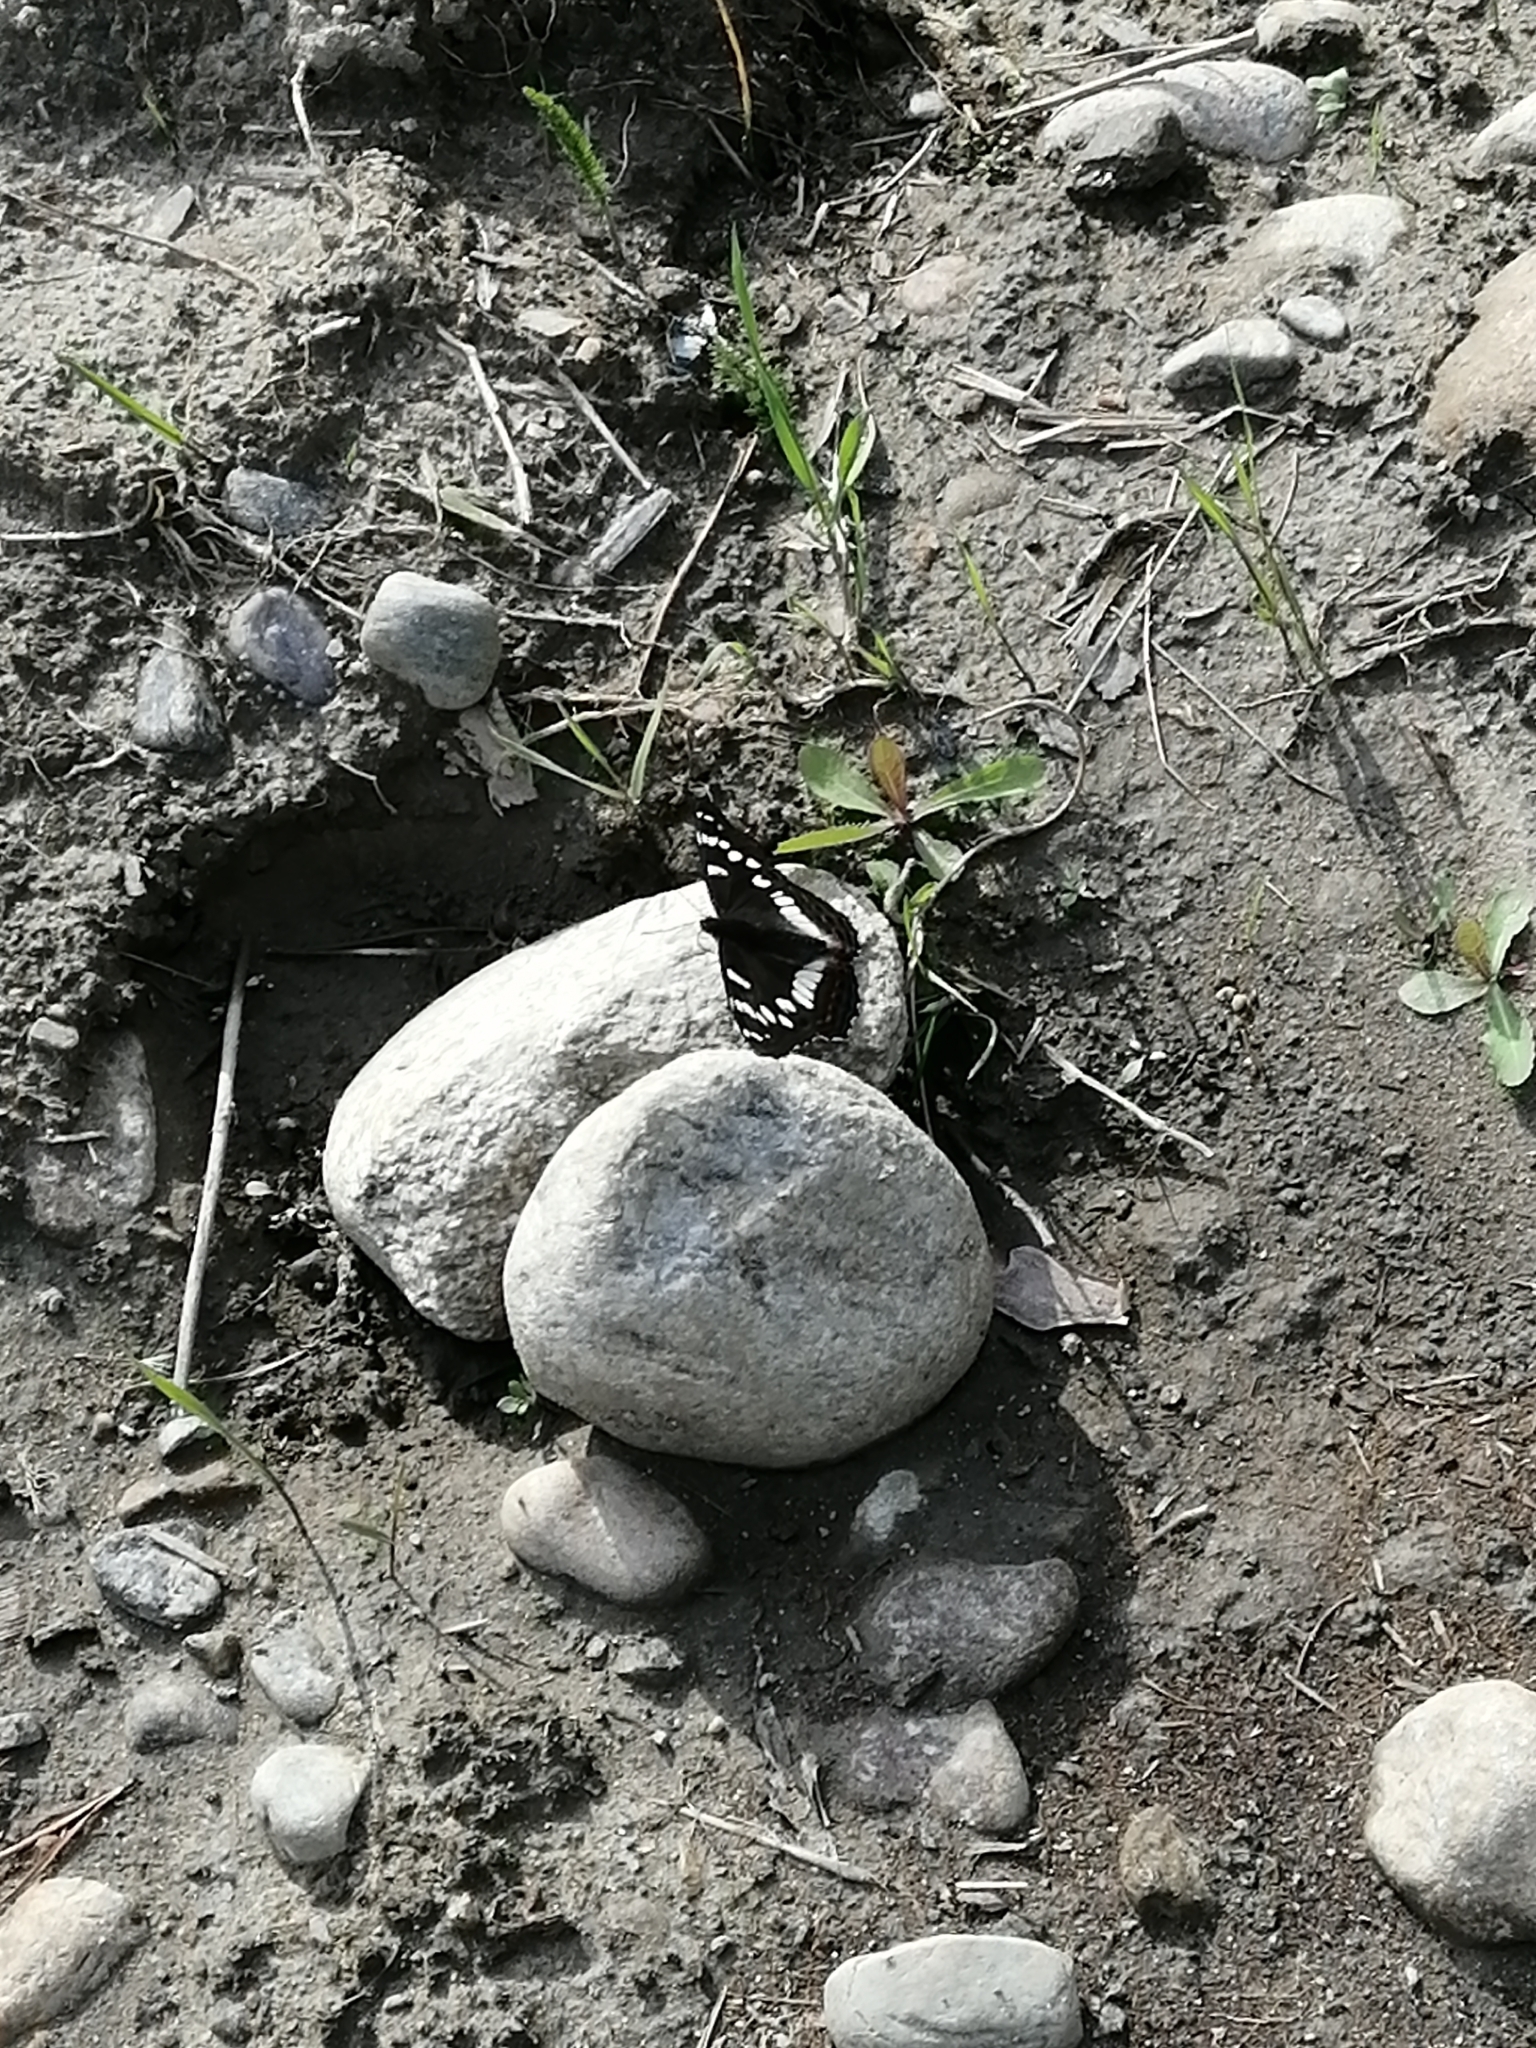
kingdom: Animalia
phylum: Arthropoda
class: Insecta
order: Lepidoptera
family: Nymphalidae
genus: Limenitis
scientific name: Limenitis populi
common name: Poplar admiral
